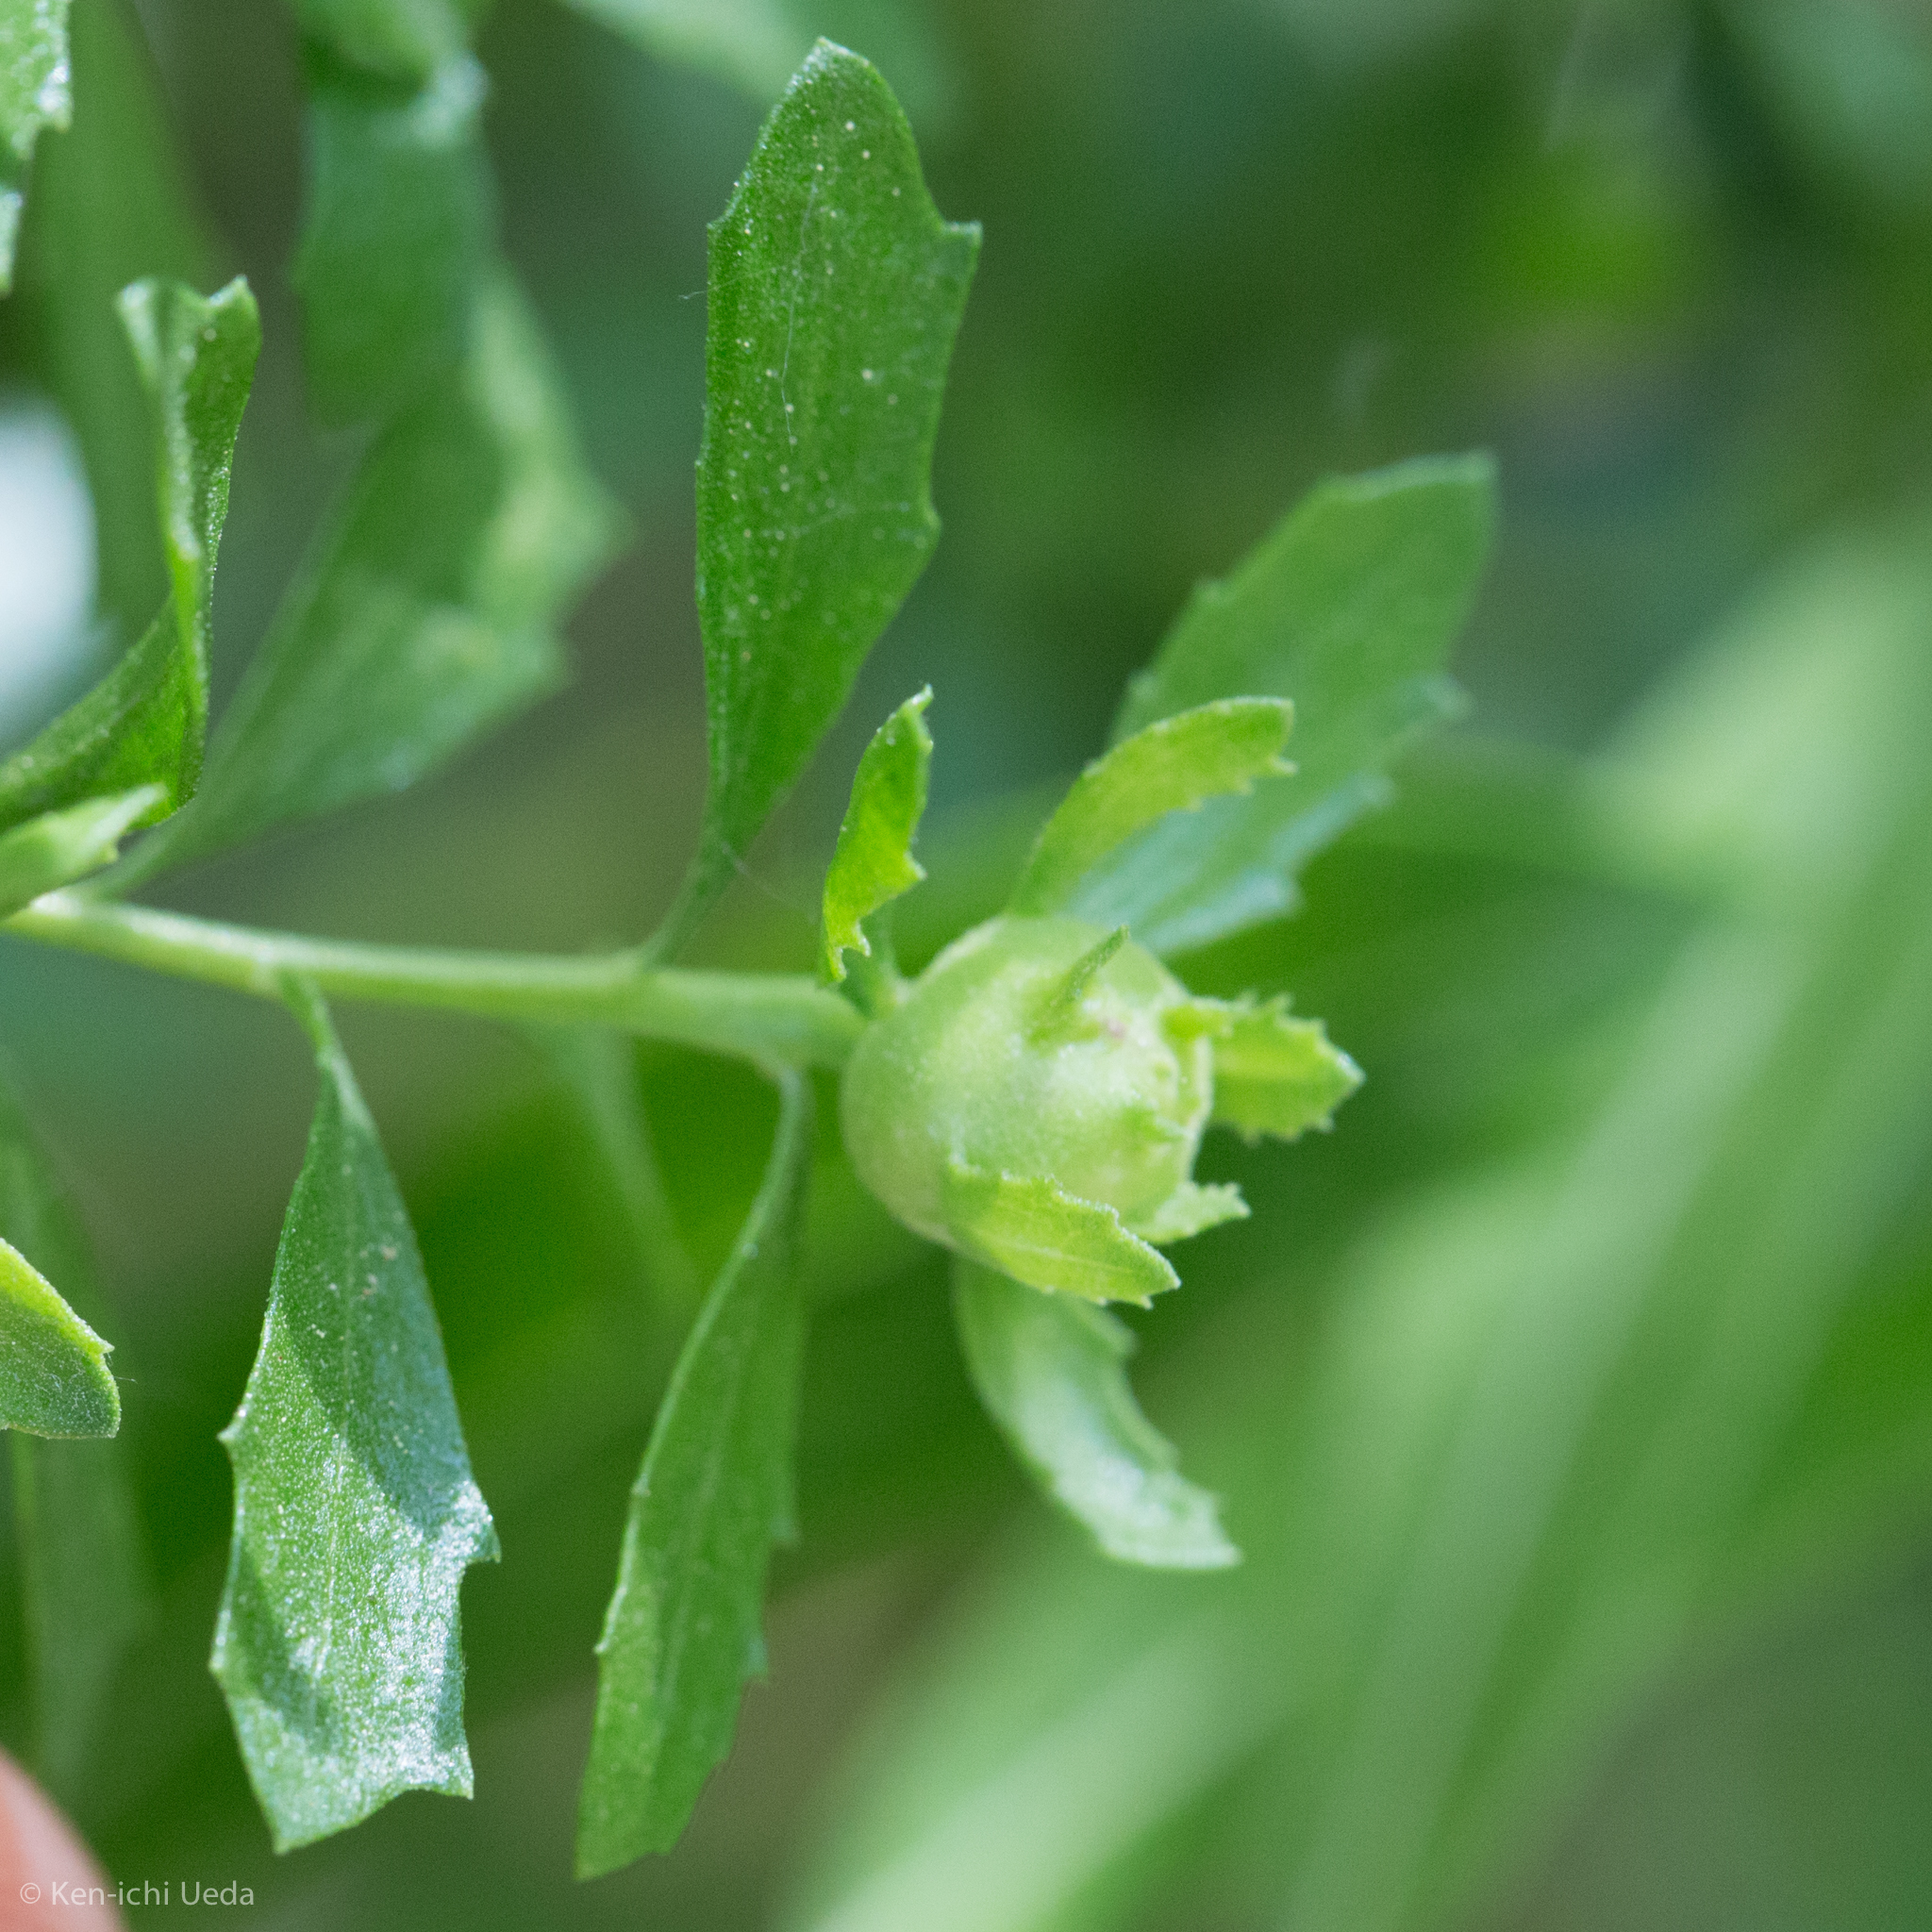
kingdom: Animalia
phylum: Arthropoda
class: Insecta
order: Diptera
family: Cecidomyiidae
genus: Rhopalomyia
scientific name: Rhopalomyia californica
